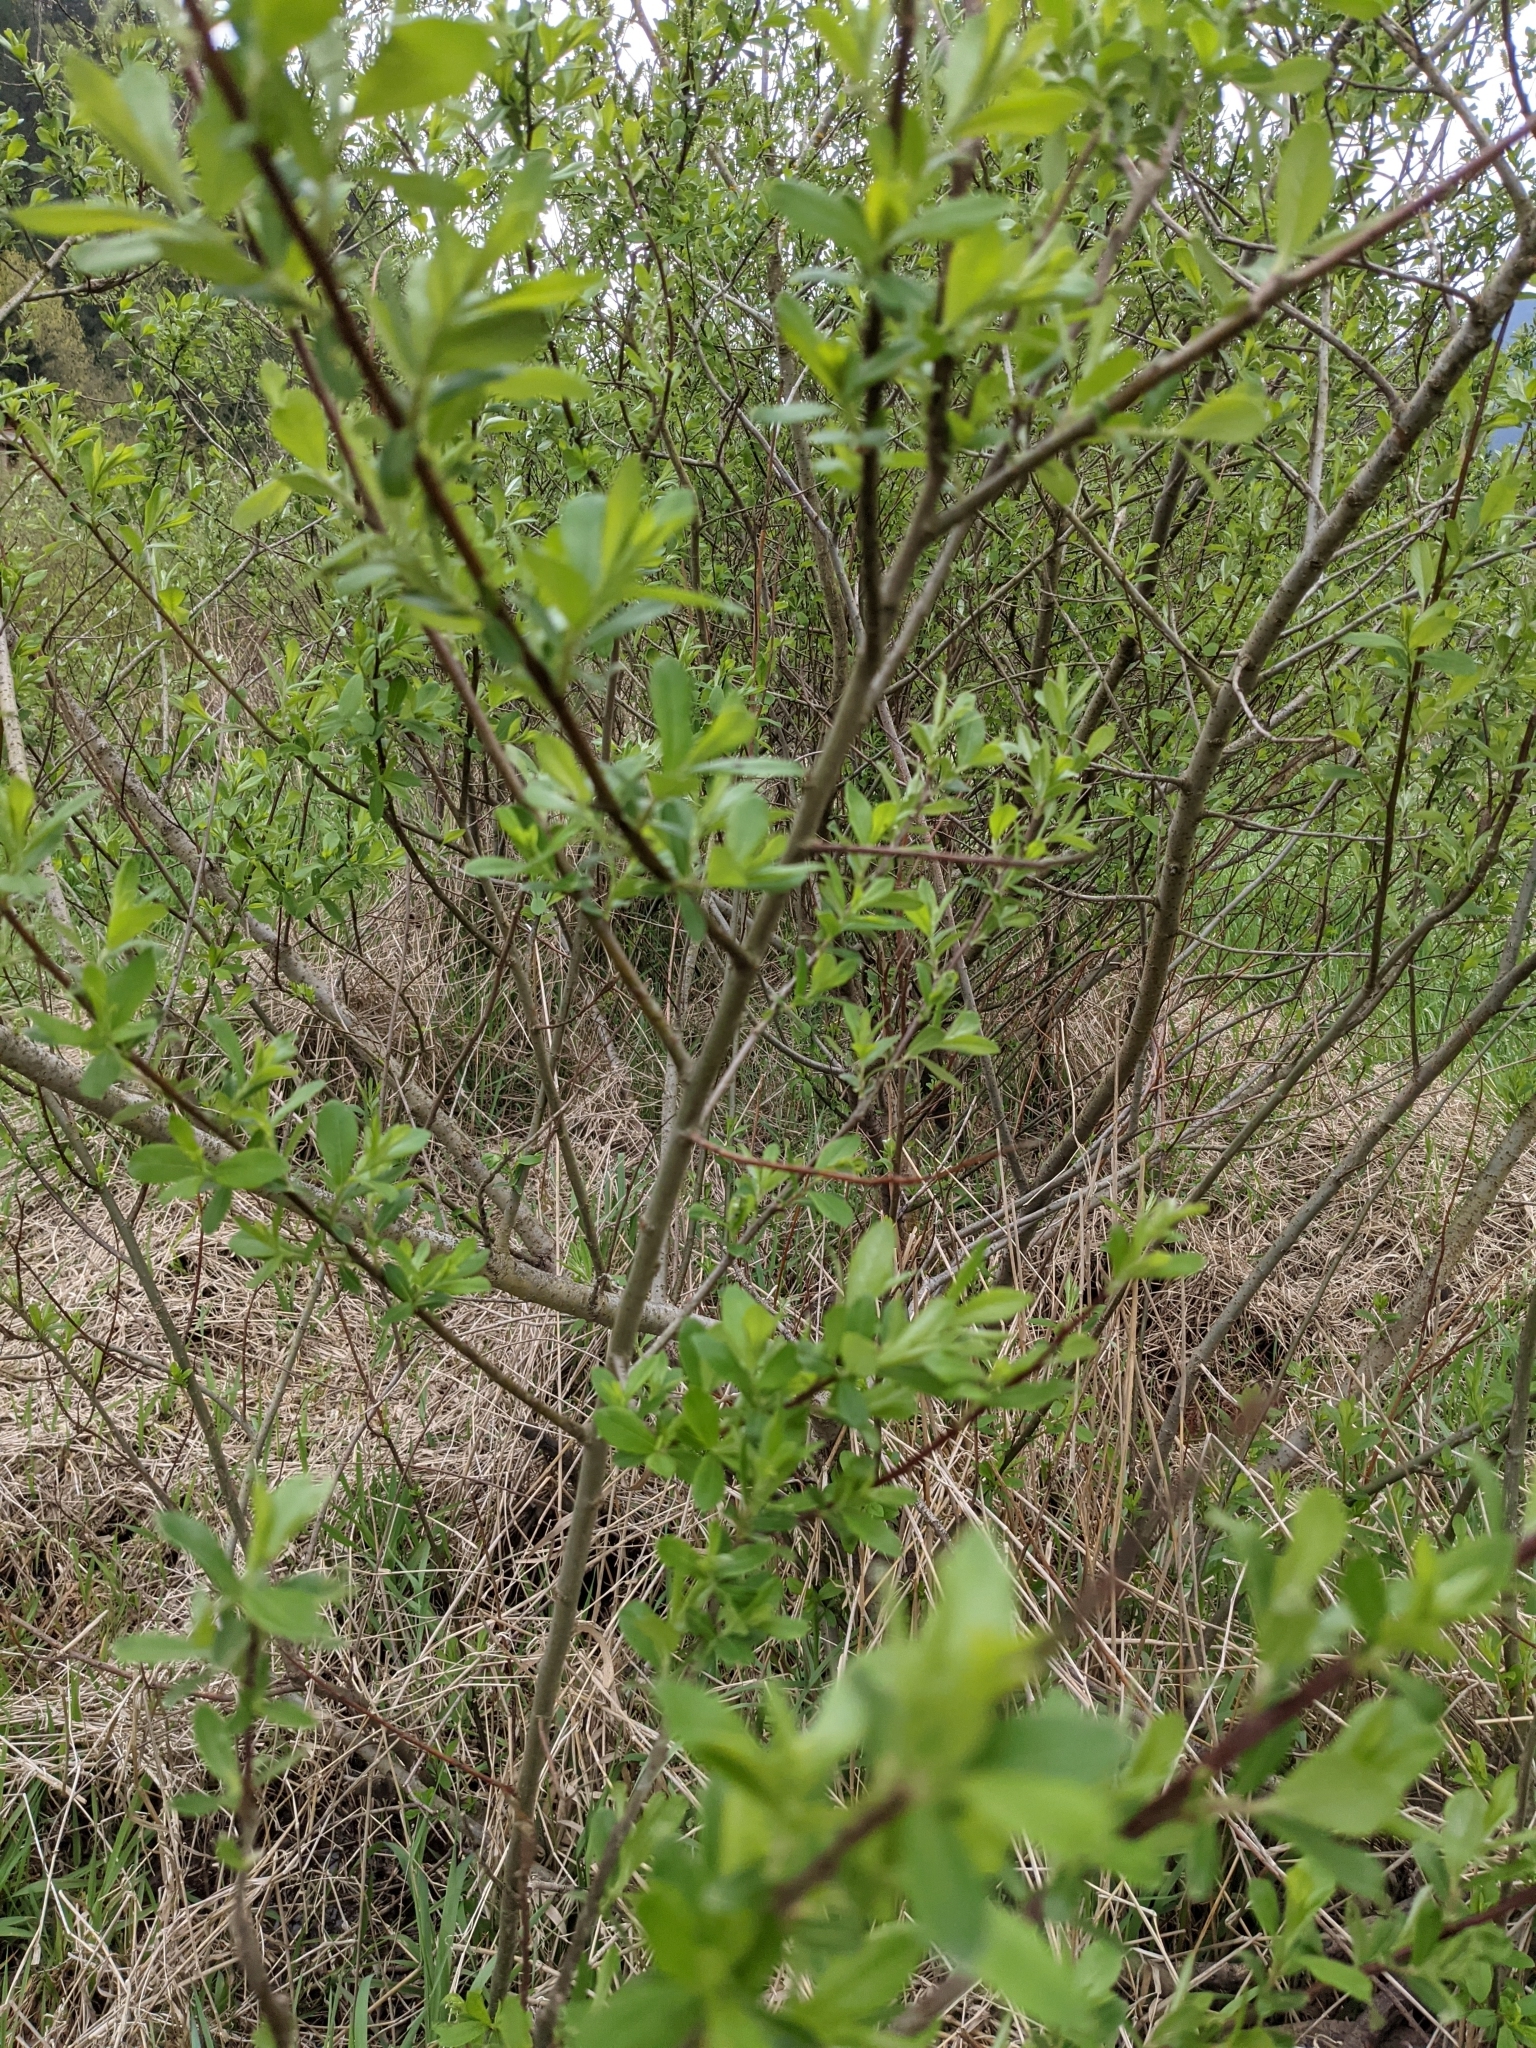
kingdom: Plantae
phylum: Tracheophyta
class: Magnoliopsida
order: Malpighiales
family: Salicaceae
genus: Salix
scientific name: Salix sitchensis
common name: Sitka willow
